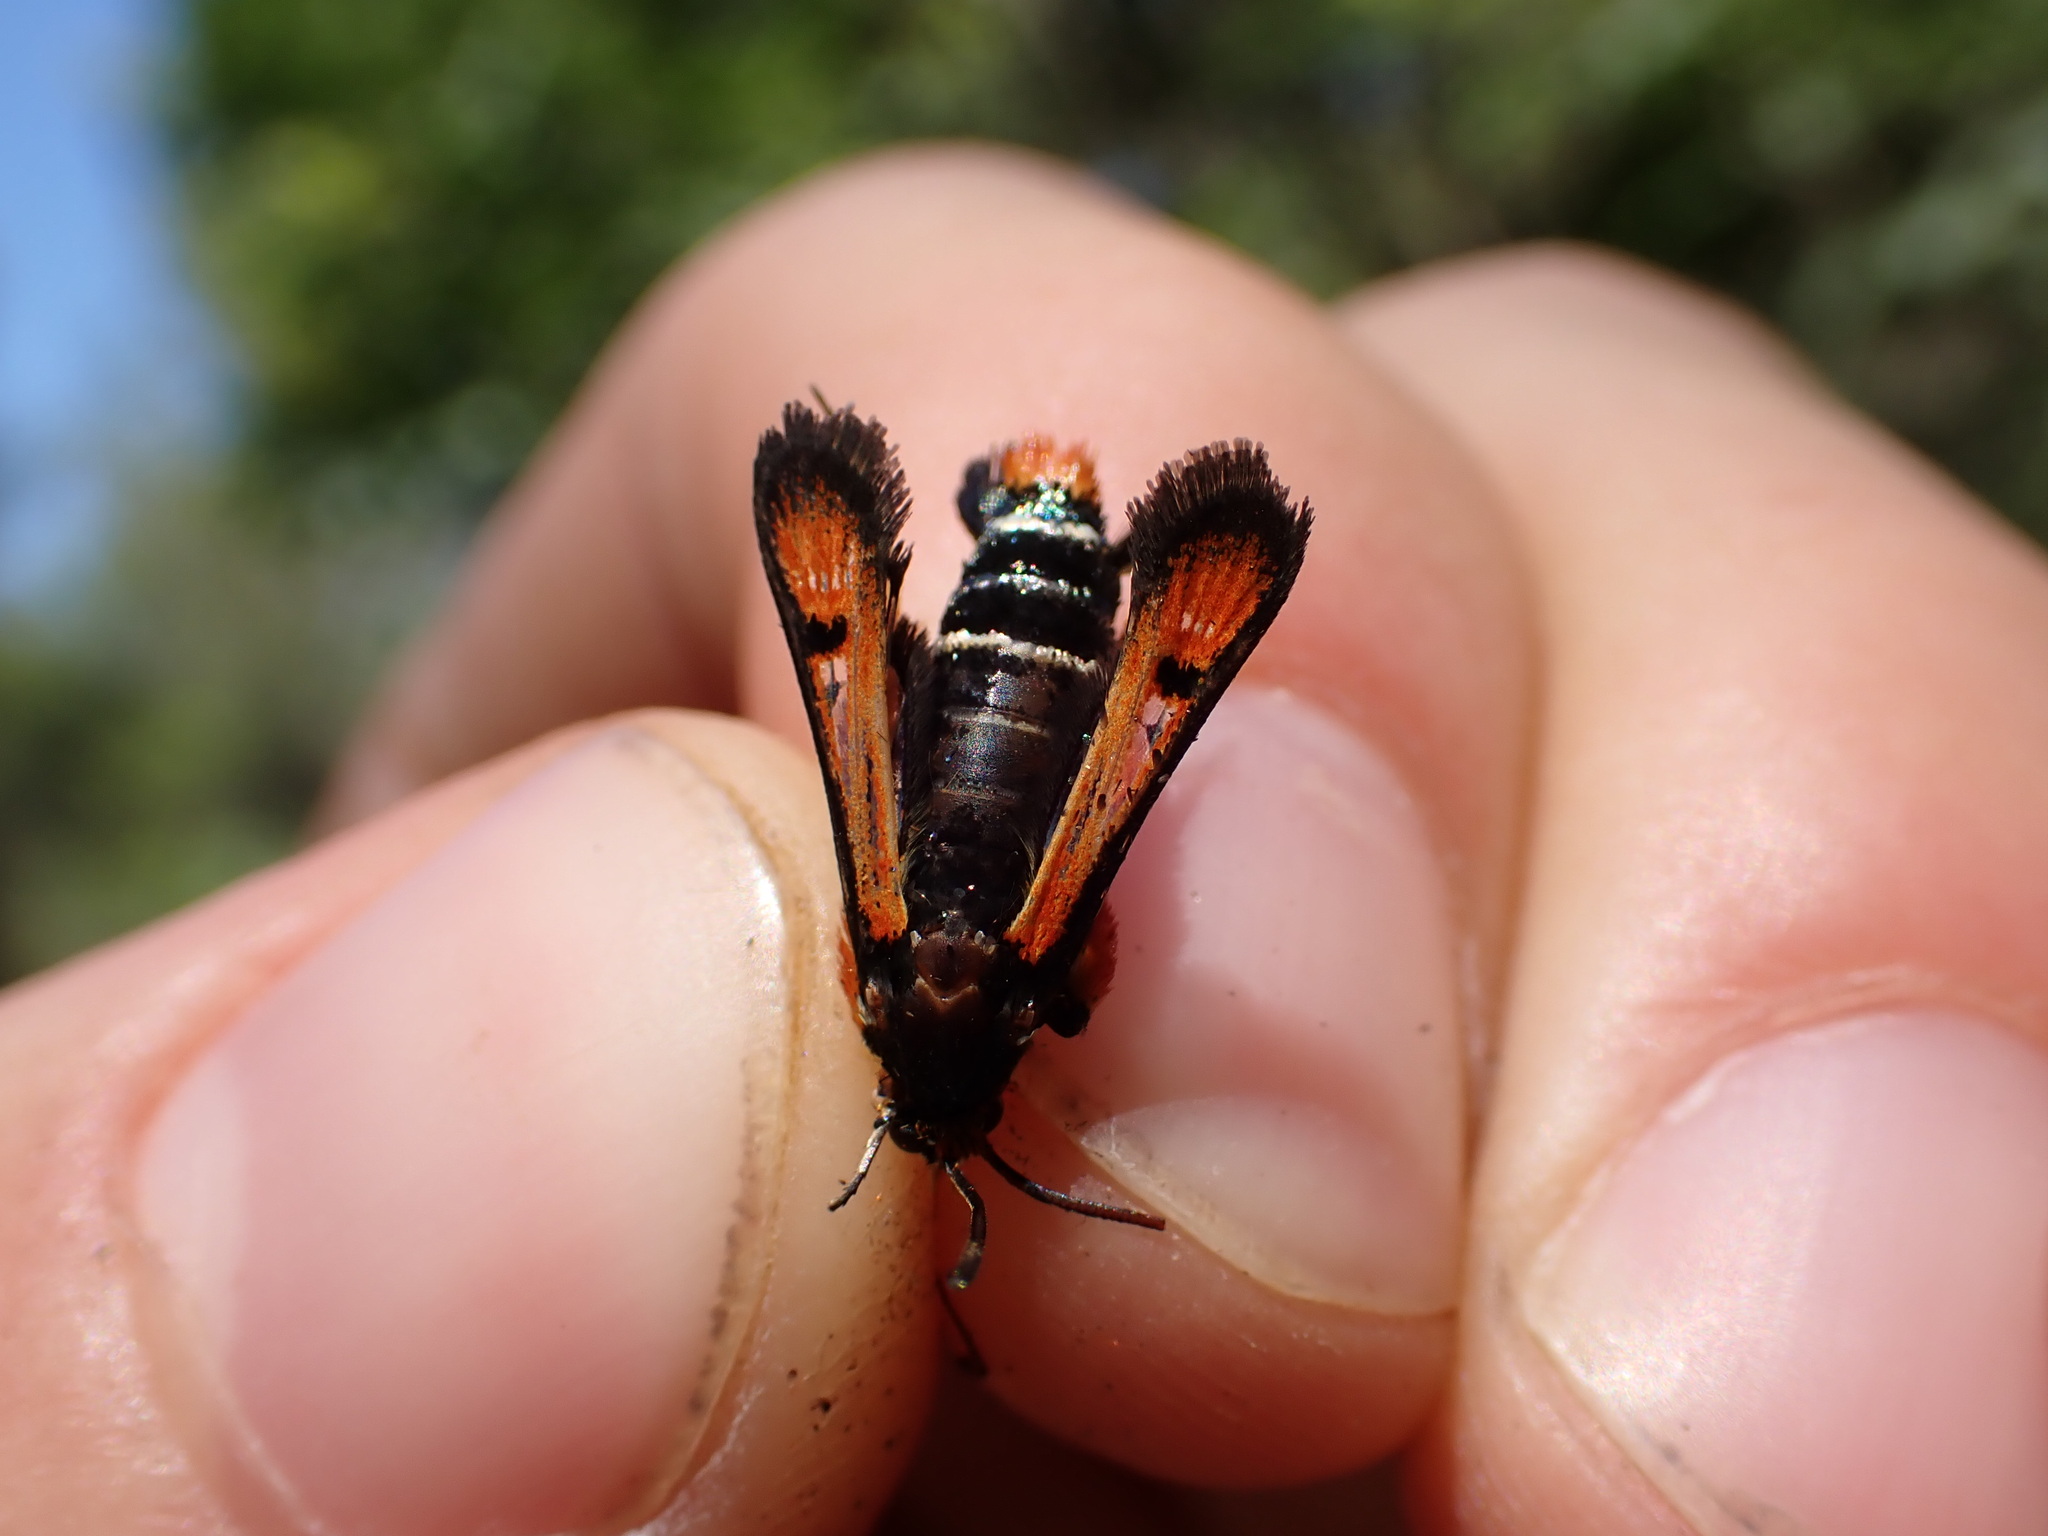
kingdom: Animalia
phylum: Arthropoda
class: Insecta
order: Lepidoptera
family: Sesiidae
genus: Pyropteron
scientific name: Pyropteron chrysidiforme
